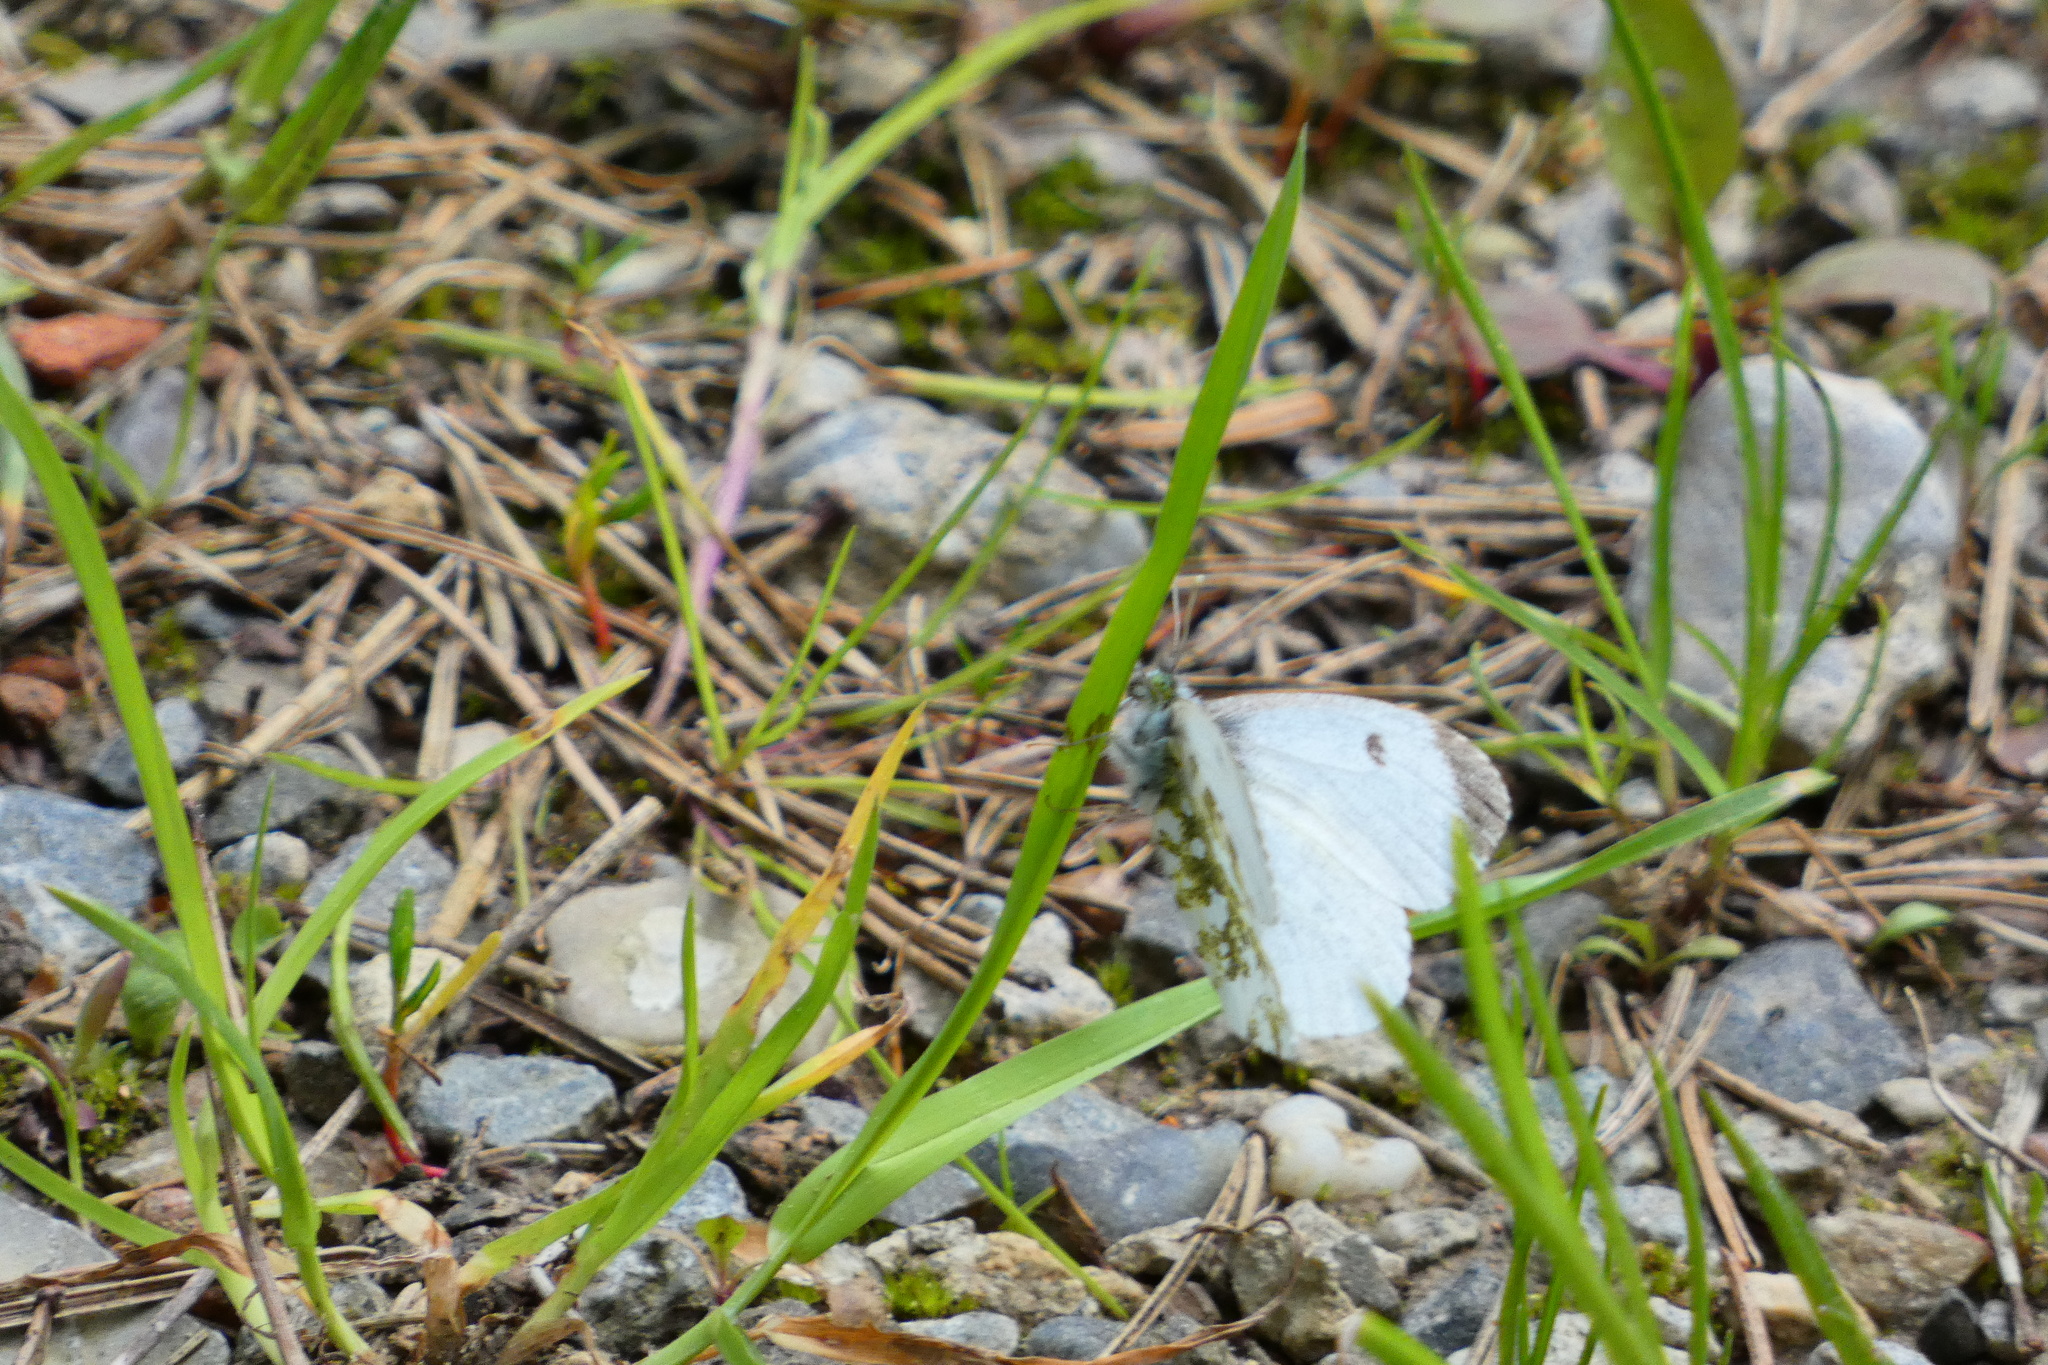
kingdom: Animalia
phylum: Arthropoda
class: Insecta
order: Lepidoptera
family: Pieridae
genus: Anthocharis
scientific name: Anthocharis cardamines
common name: Orange-tip
